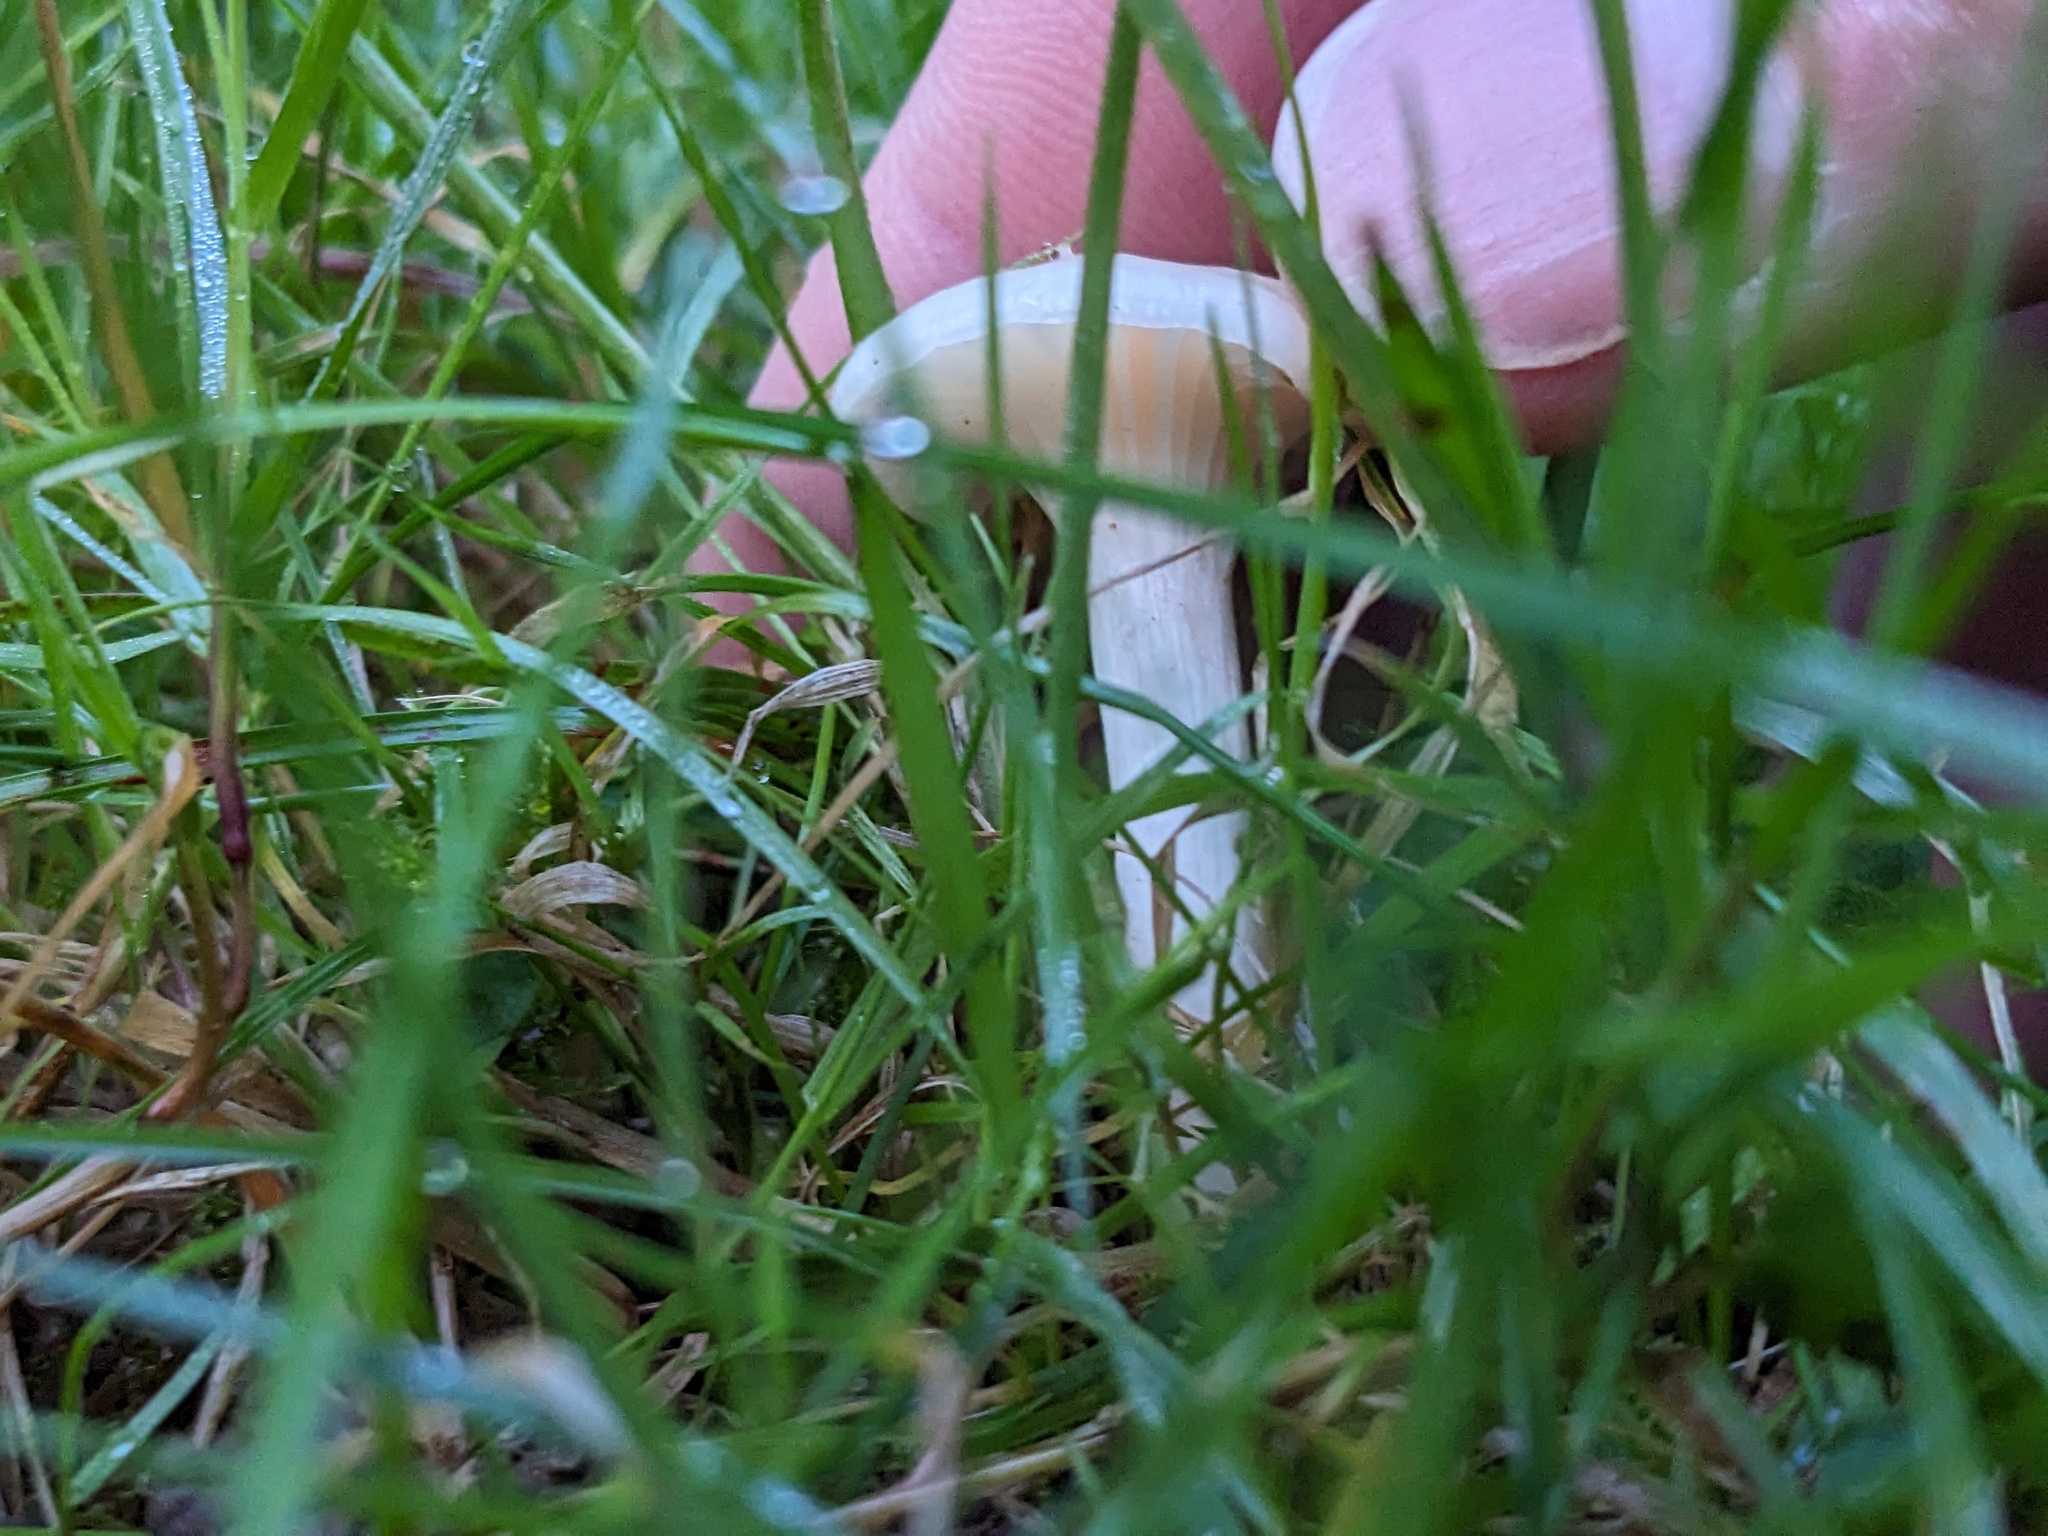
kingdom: Fungi
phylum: Basidiomycota
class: Agaricomycetes
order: Agaricales
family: Hygrophoraceae
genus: Cuphophyllus
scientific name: Cuphophyllus virgineus
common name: Snowy waxcap
